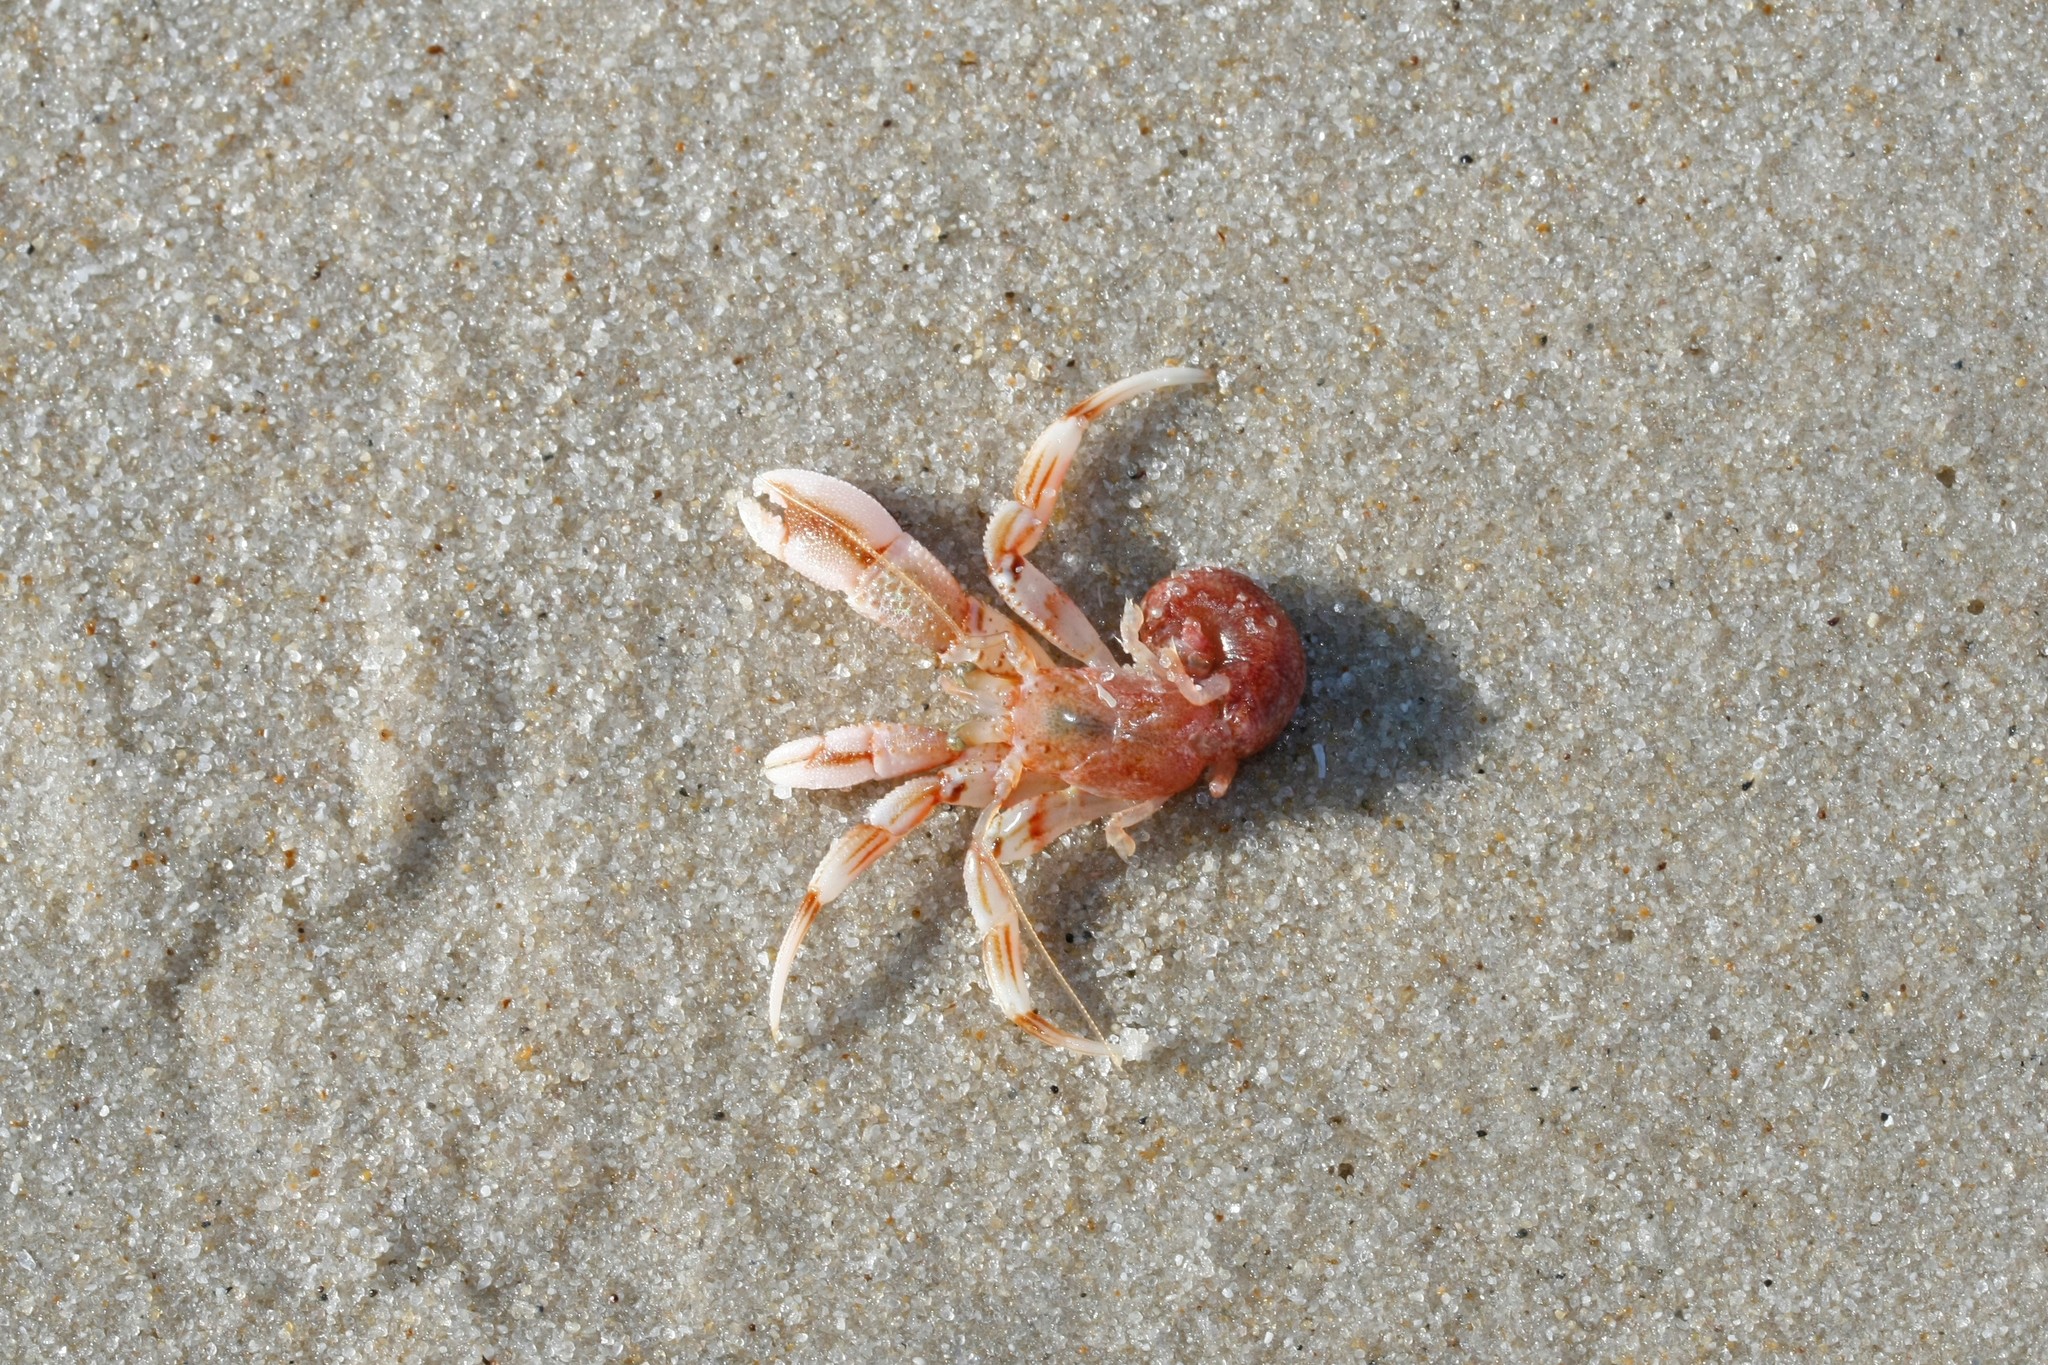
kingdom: Animalia
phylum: Arthropoda
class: Malacostraca
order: Decapoda
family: Paguridae
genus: Pagurus
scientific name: Pagurus bernhardus
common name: Hermit crab
